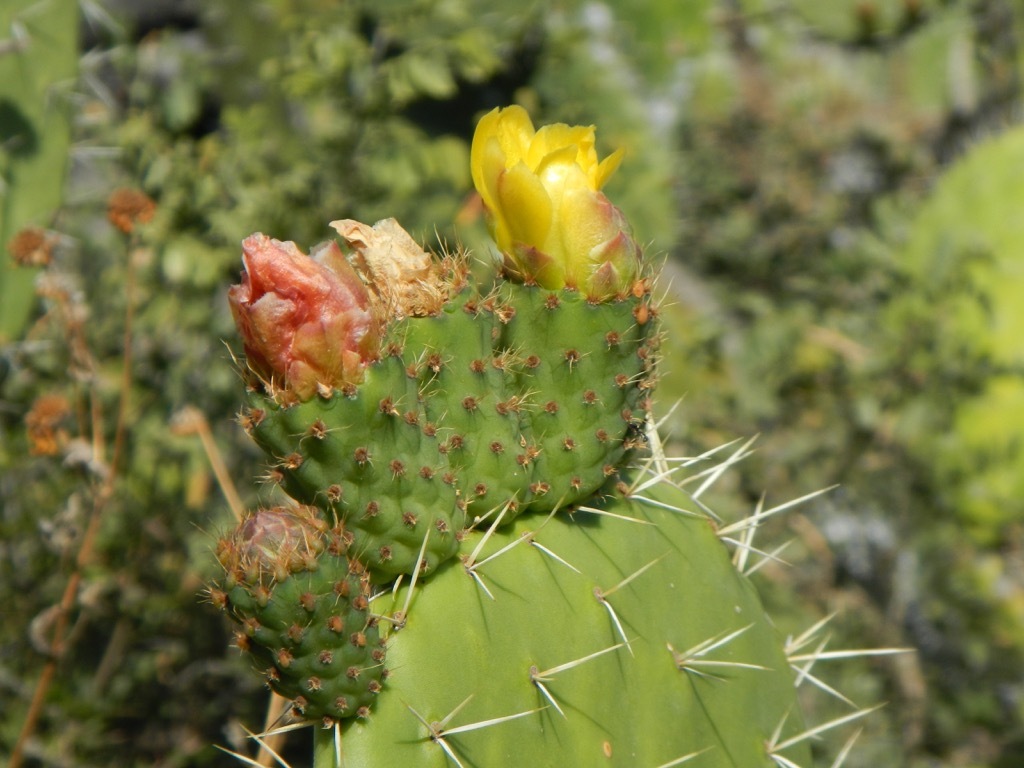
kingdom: Plantae
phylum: Tracheophyta
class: Magnoliopsida
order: Caryophyllales
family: Cactaceae
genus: Opuntia
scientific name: Opuntia ficus-indica
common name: Barbary fig
